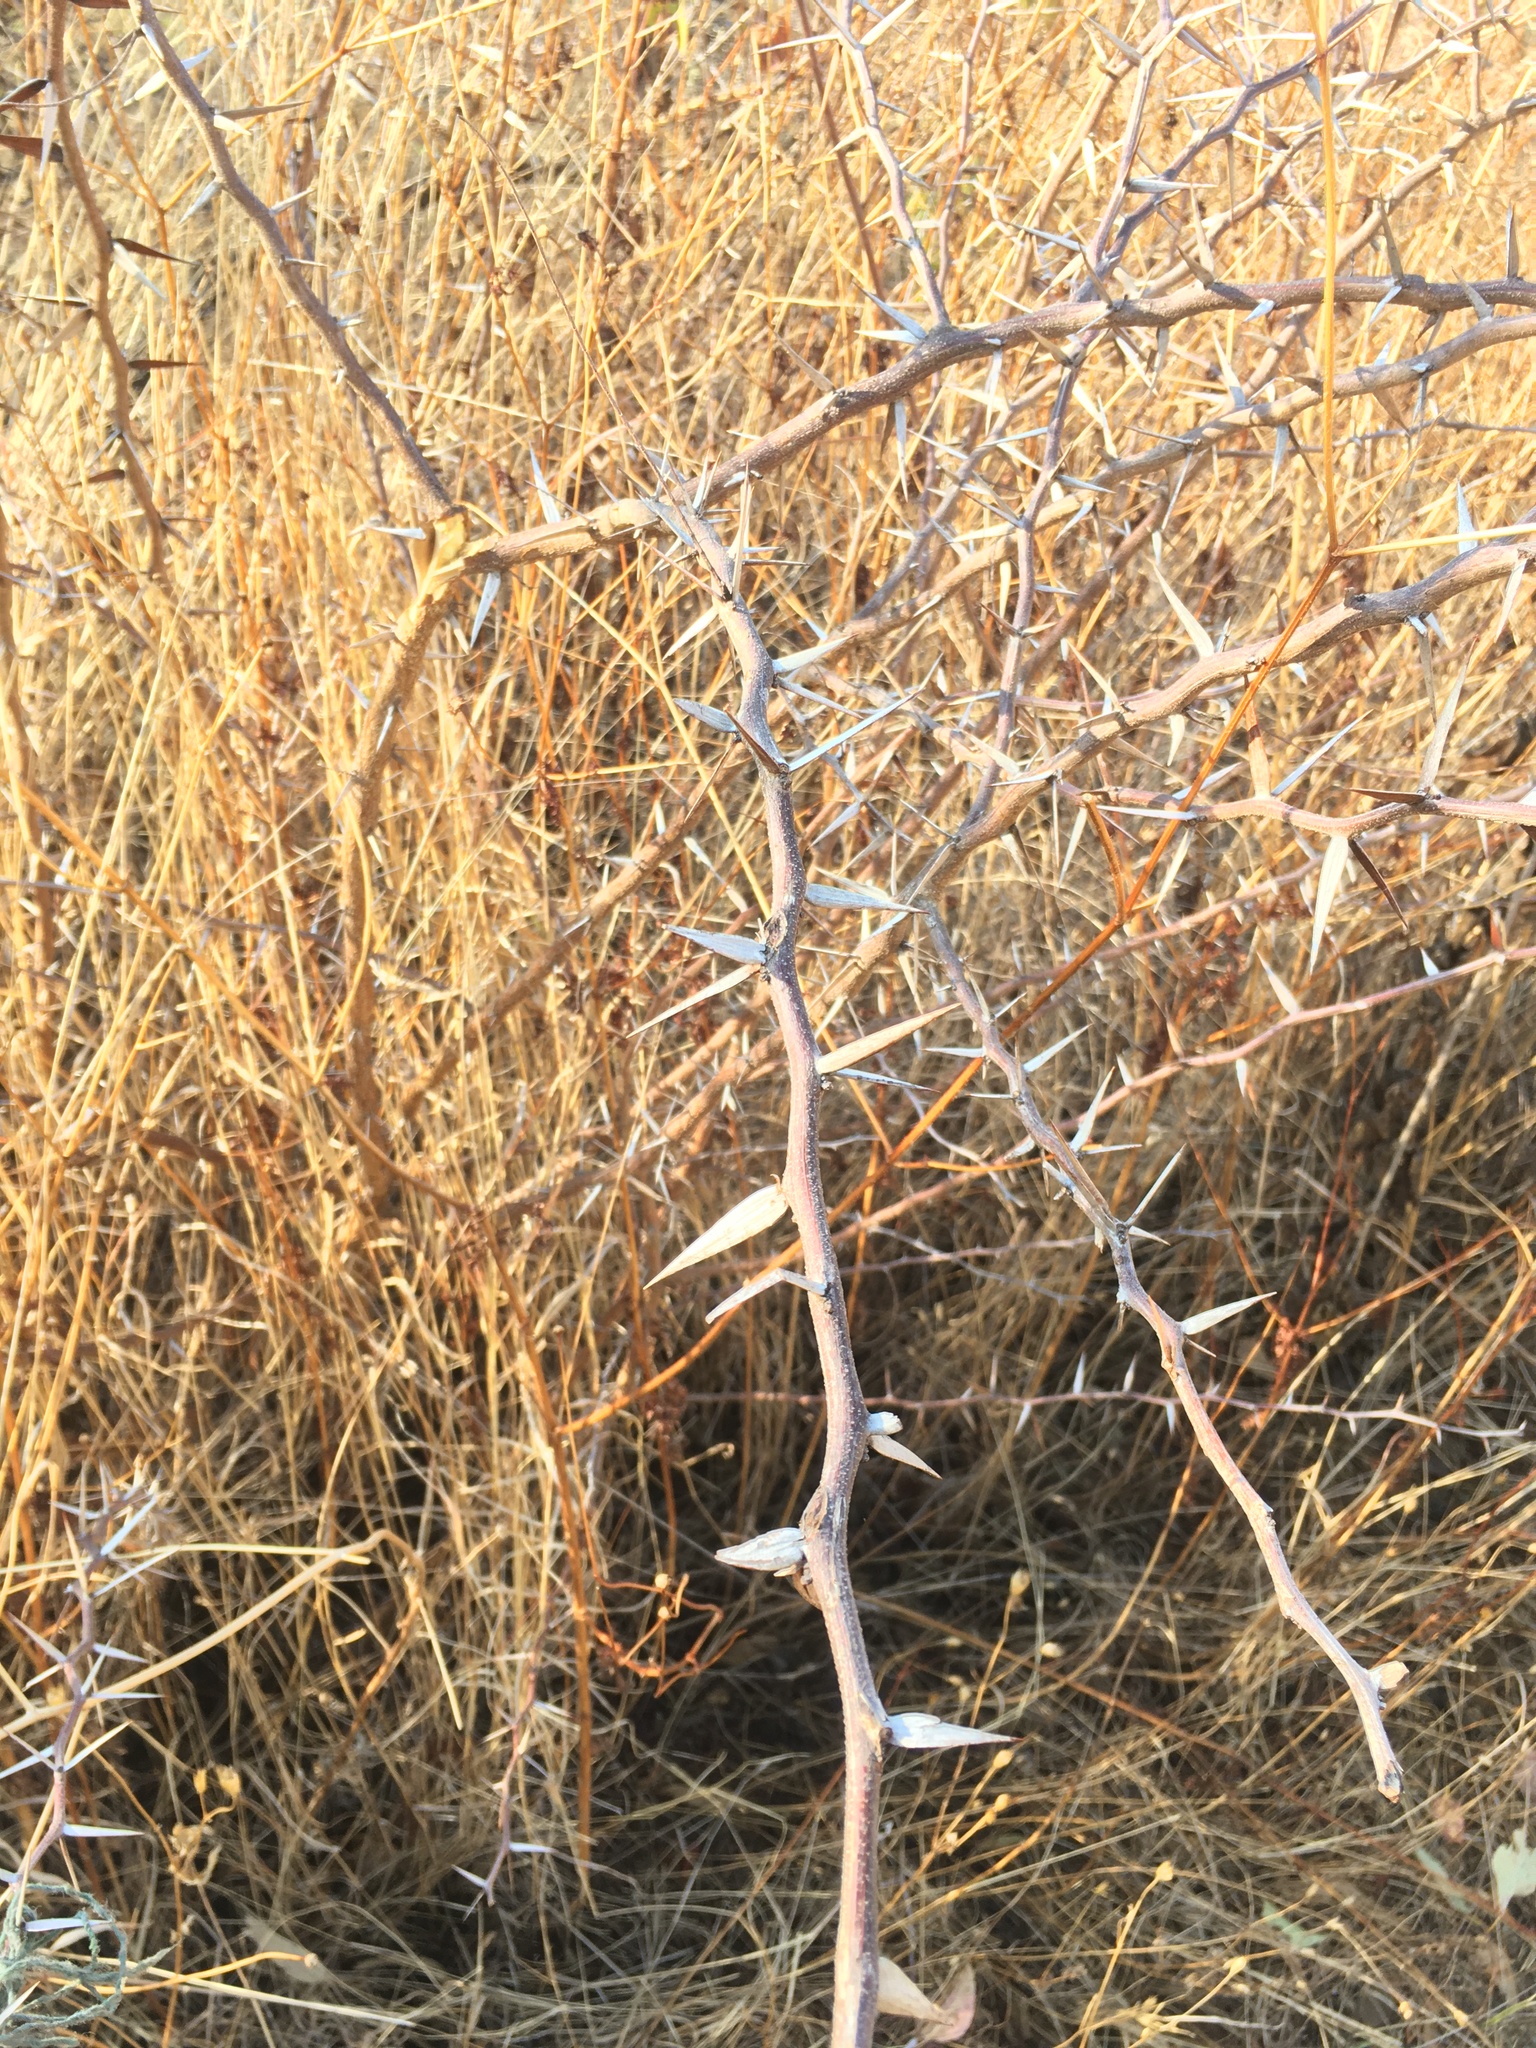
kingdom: Plantae
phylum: Tracheophyta
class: Magnoliopsida
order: Fabales
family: Fabaceae
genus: Vachellia
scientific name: Vachellia campechiana
